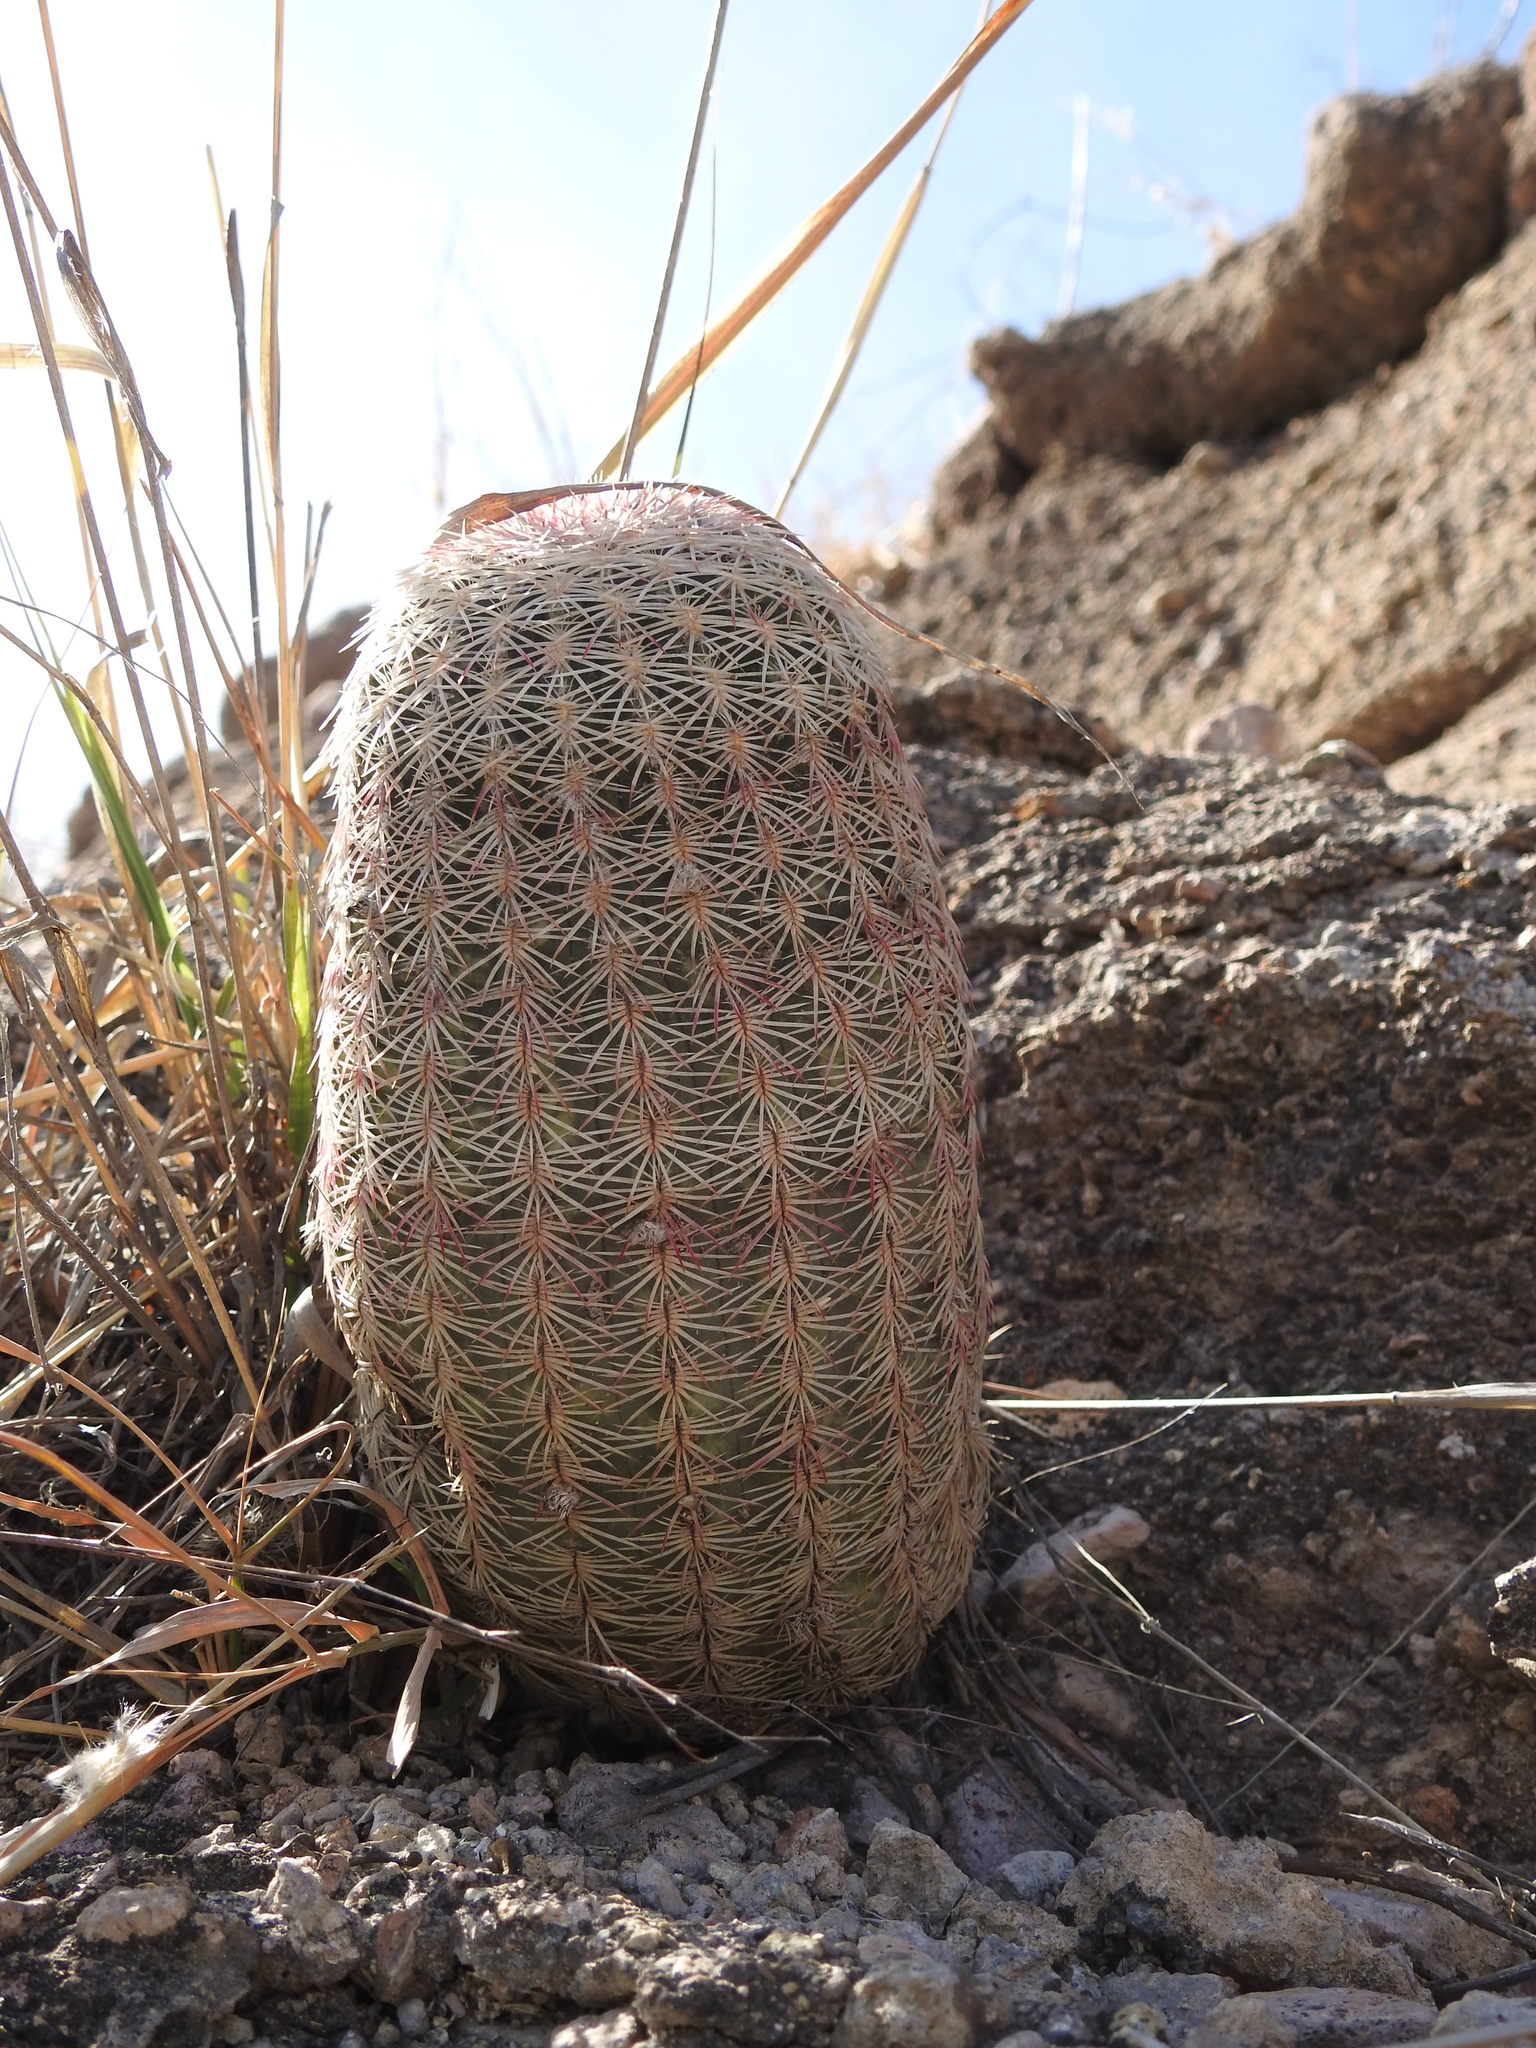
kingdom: Plantae
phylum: Tracheophyta
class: Magnoliopsida
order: Caryophyllales
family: Cactaceae
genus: Echinocereus
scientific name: Echinocereus rigidissimus
